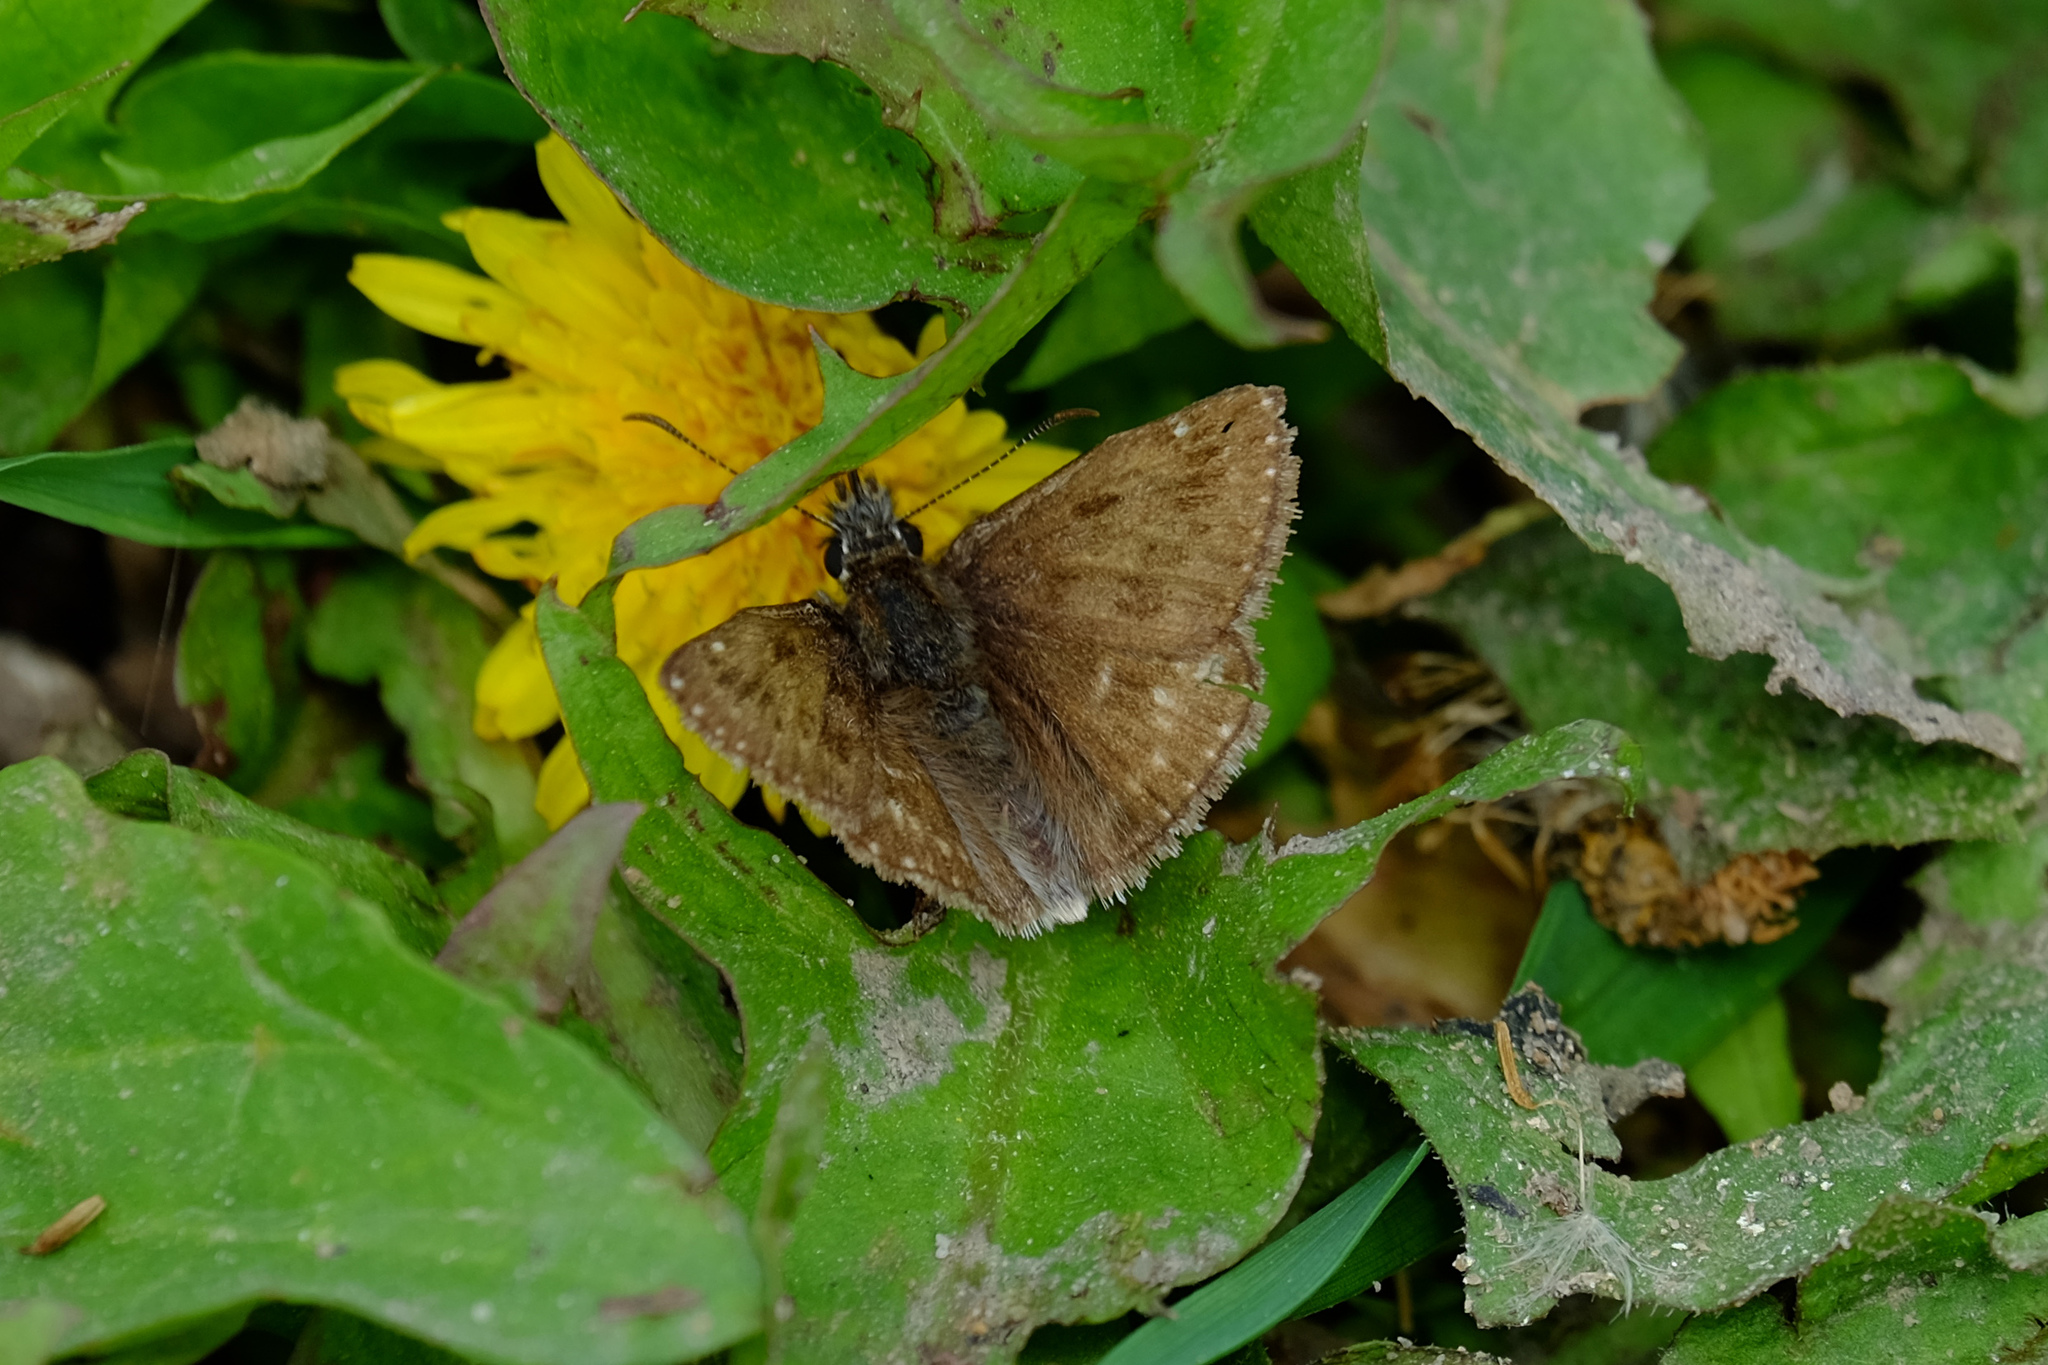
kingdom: Animalia
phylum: Arthropoda
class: Insecta
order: Lepidoptera
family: Hesperiidae
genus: Erynnis
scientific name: Erynnis tages
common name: Dingy skipper
